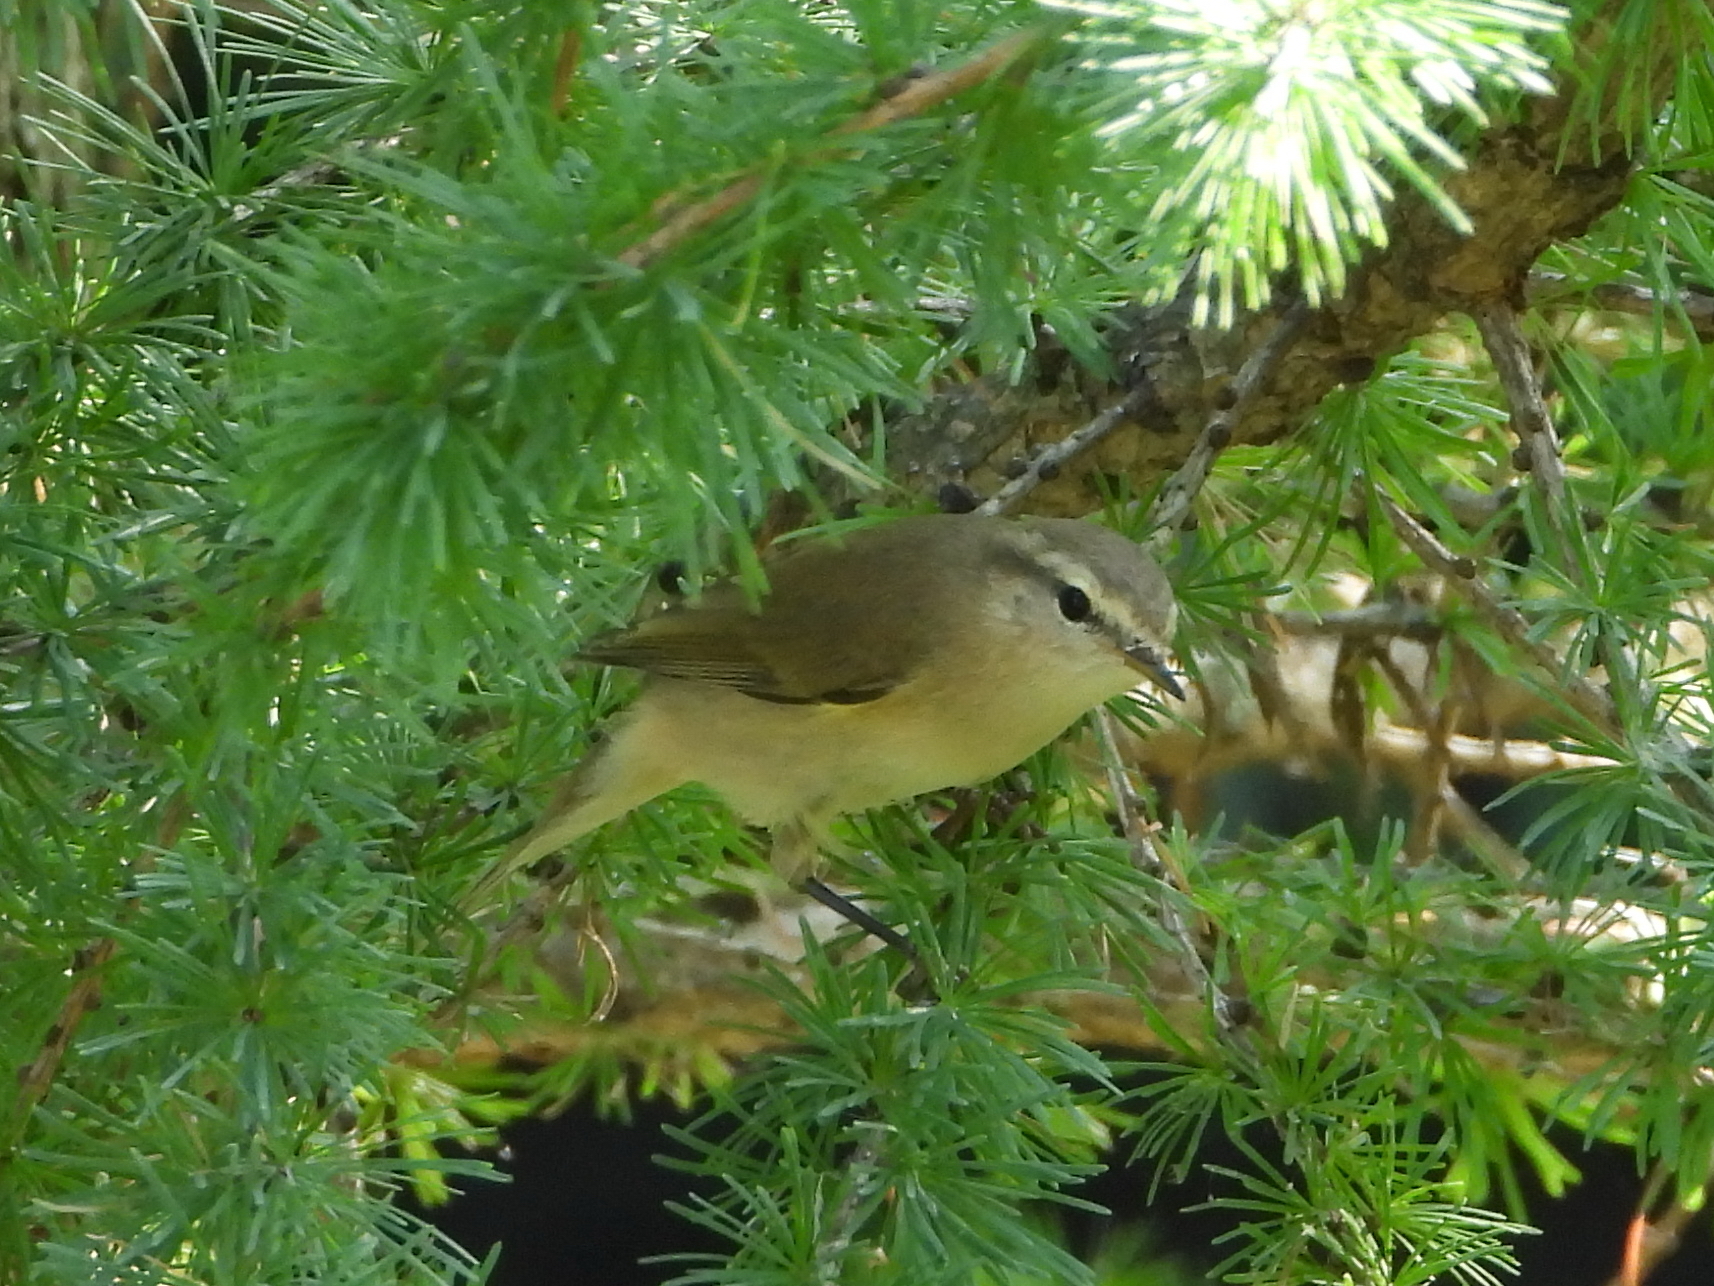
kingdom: Animalia
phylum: Chordata
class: Aves
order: Passeriformes
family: Phylloscopidae
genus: Phylloscopus
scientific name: Phylloscopus collybita
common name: Common chiffchaff
